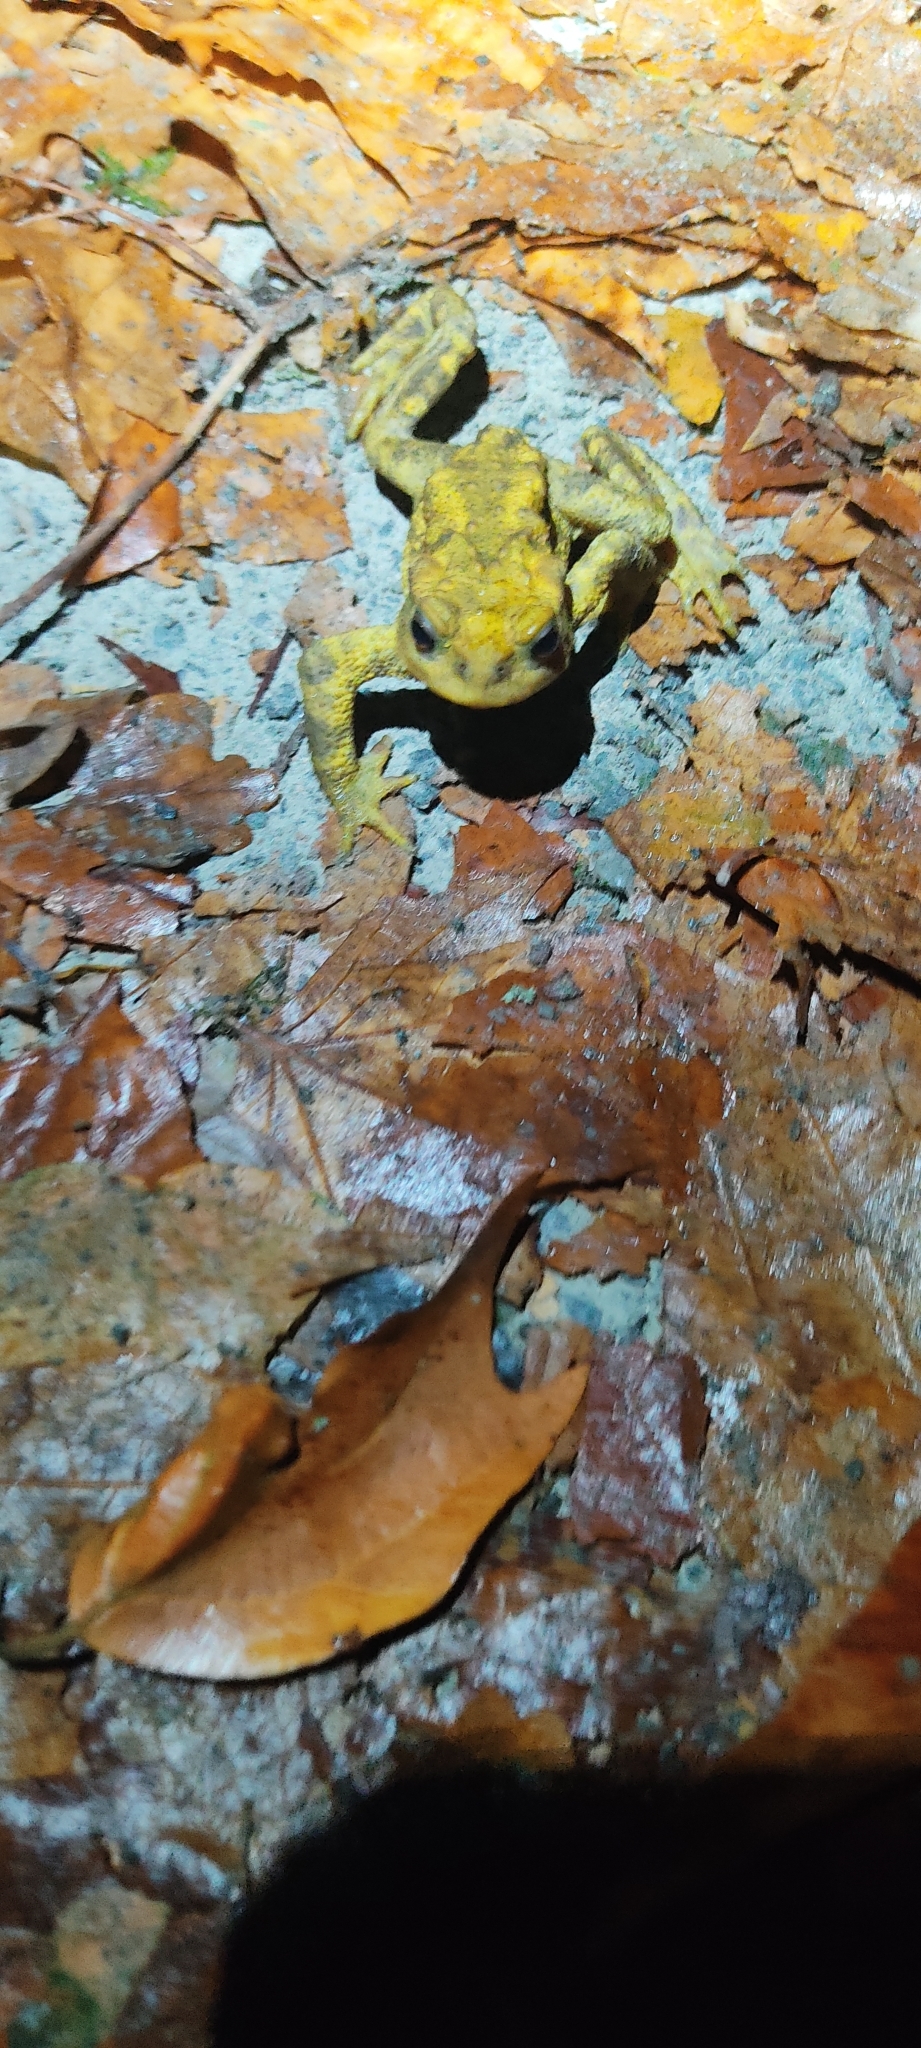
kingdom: Animalia
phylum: Chordata
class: Amphibia
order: Anura
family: Bufonidae
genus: Bufo
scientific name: Bufo spinosus
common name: Western common toad
